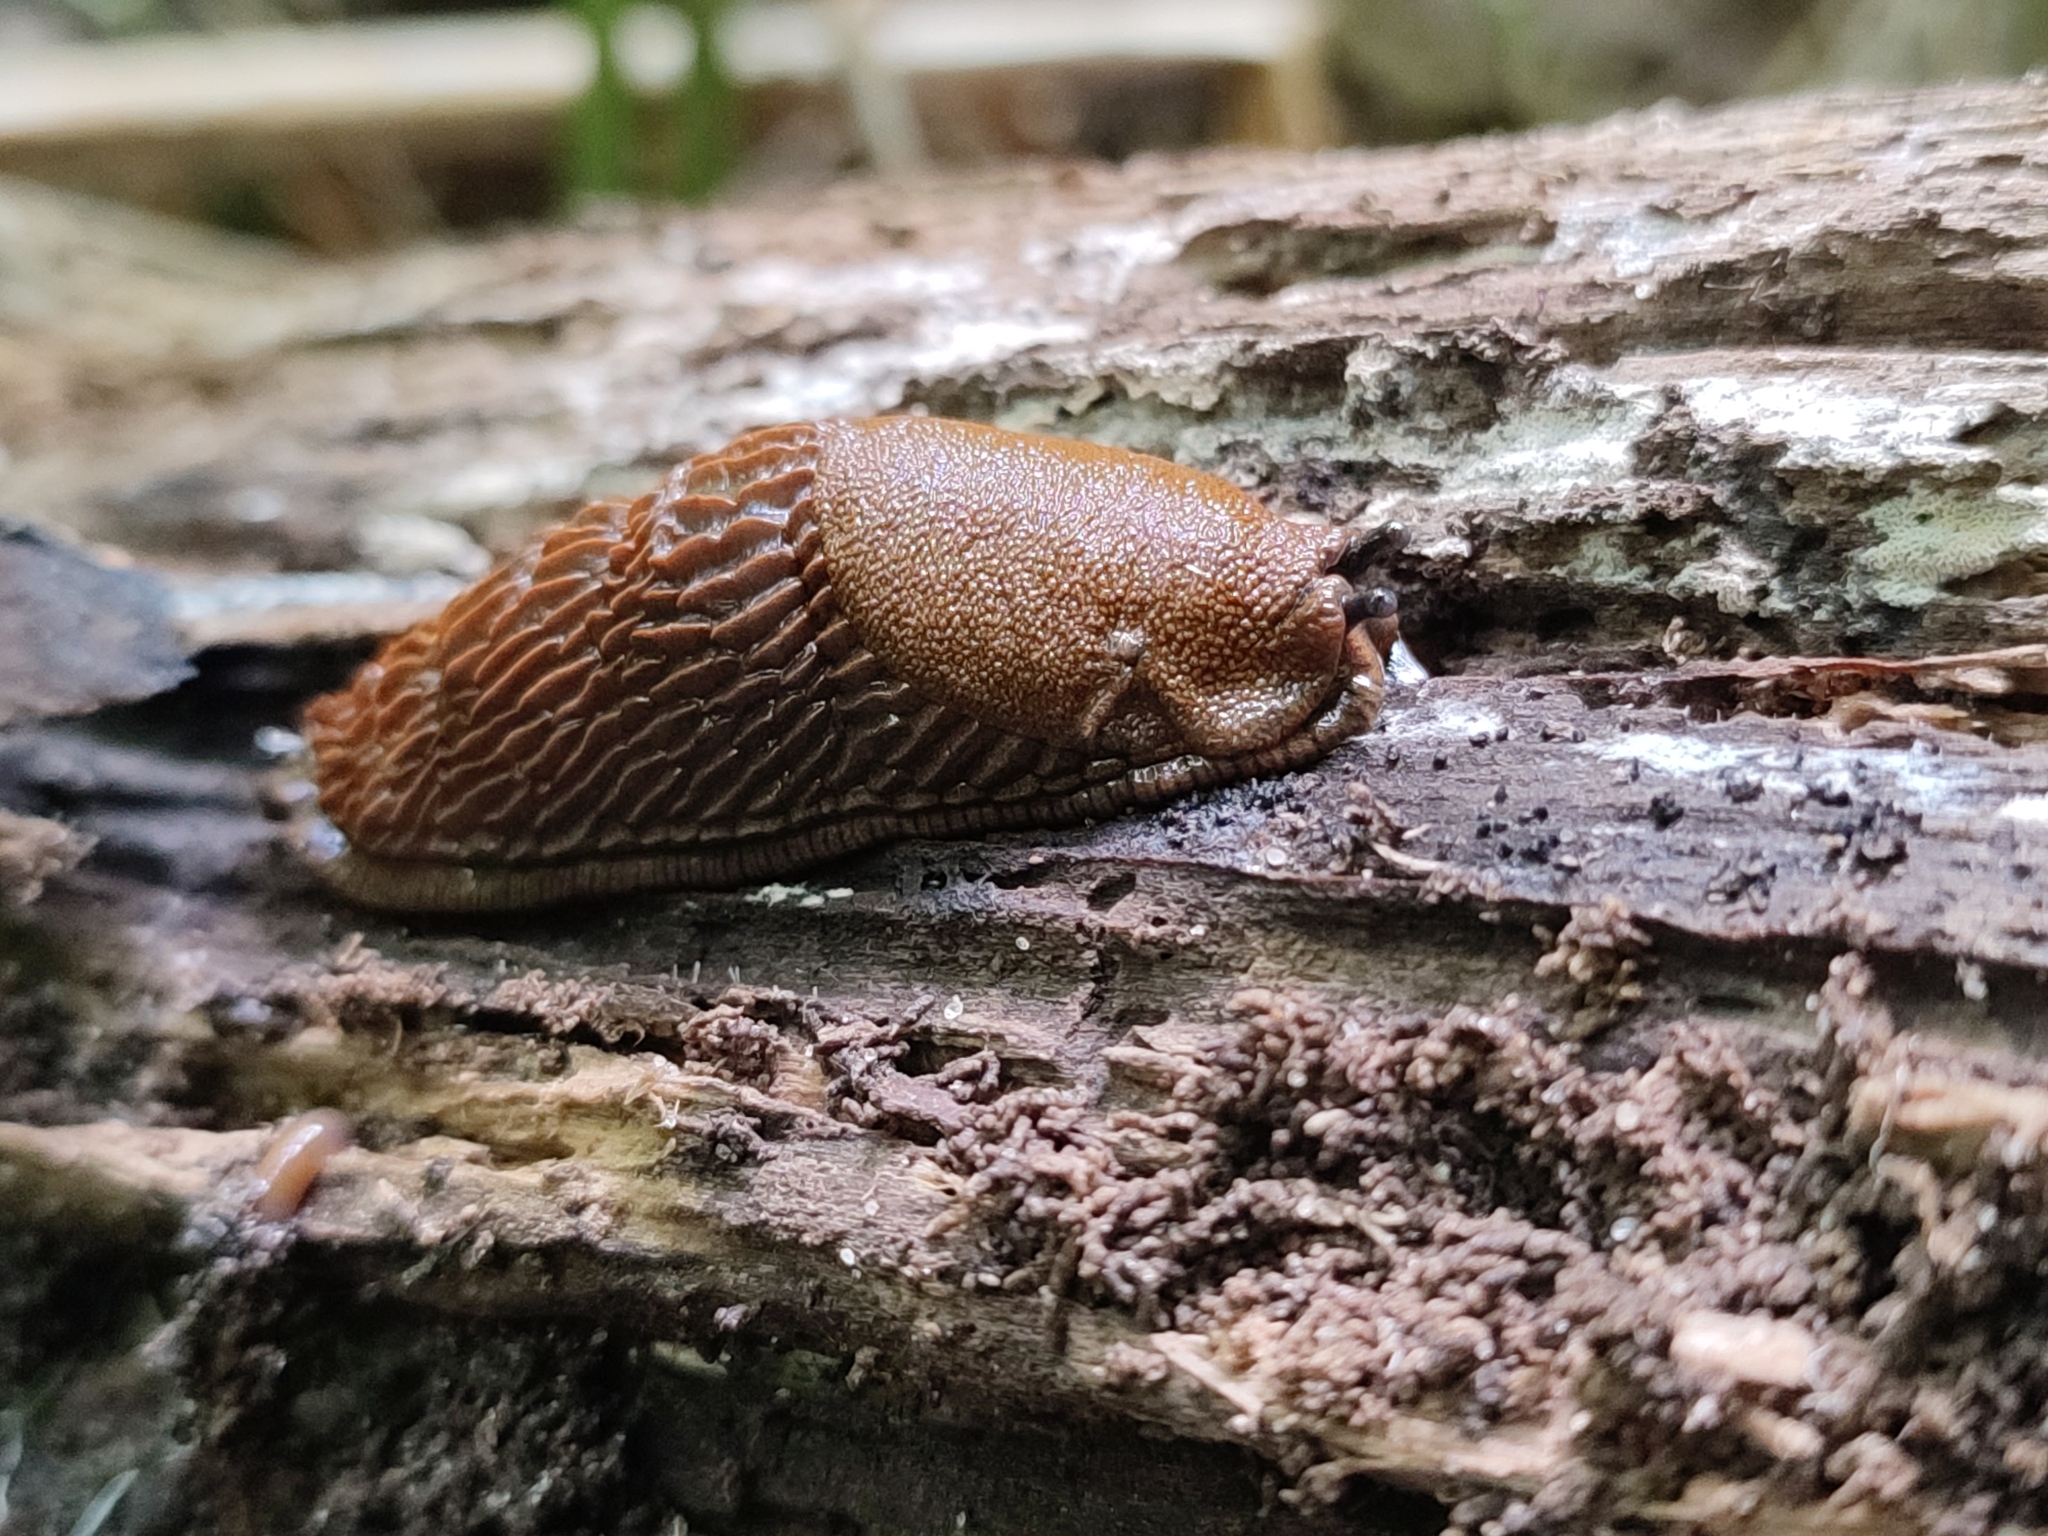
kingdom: Animalia
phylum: Mollusca
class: Gastropoda
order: Stylommatophora
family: Arionidae
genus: Arion
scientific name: Arion vulgaris
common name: Lusitanian slug
